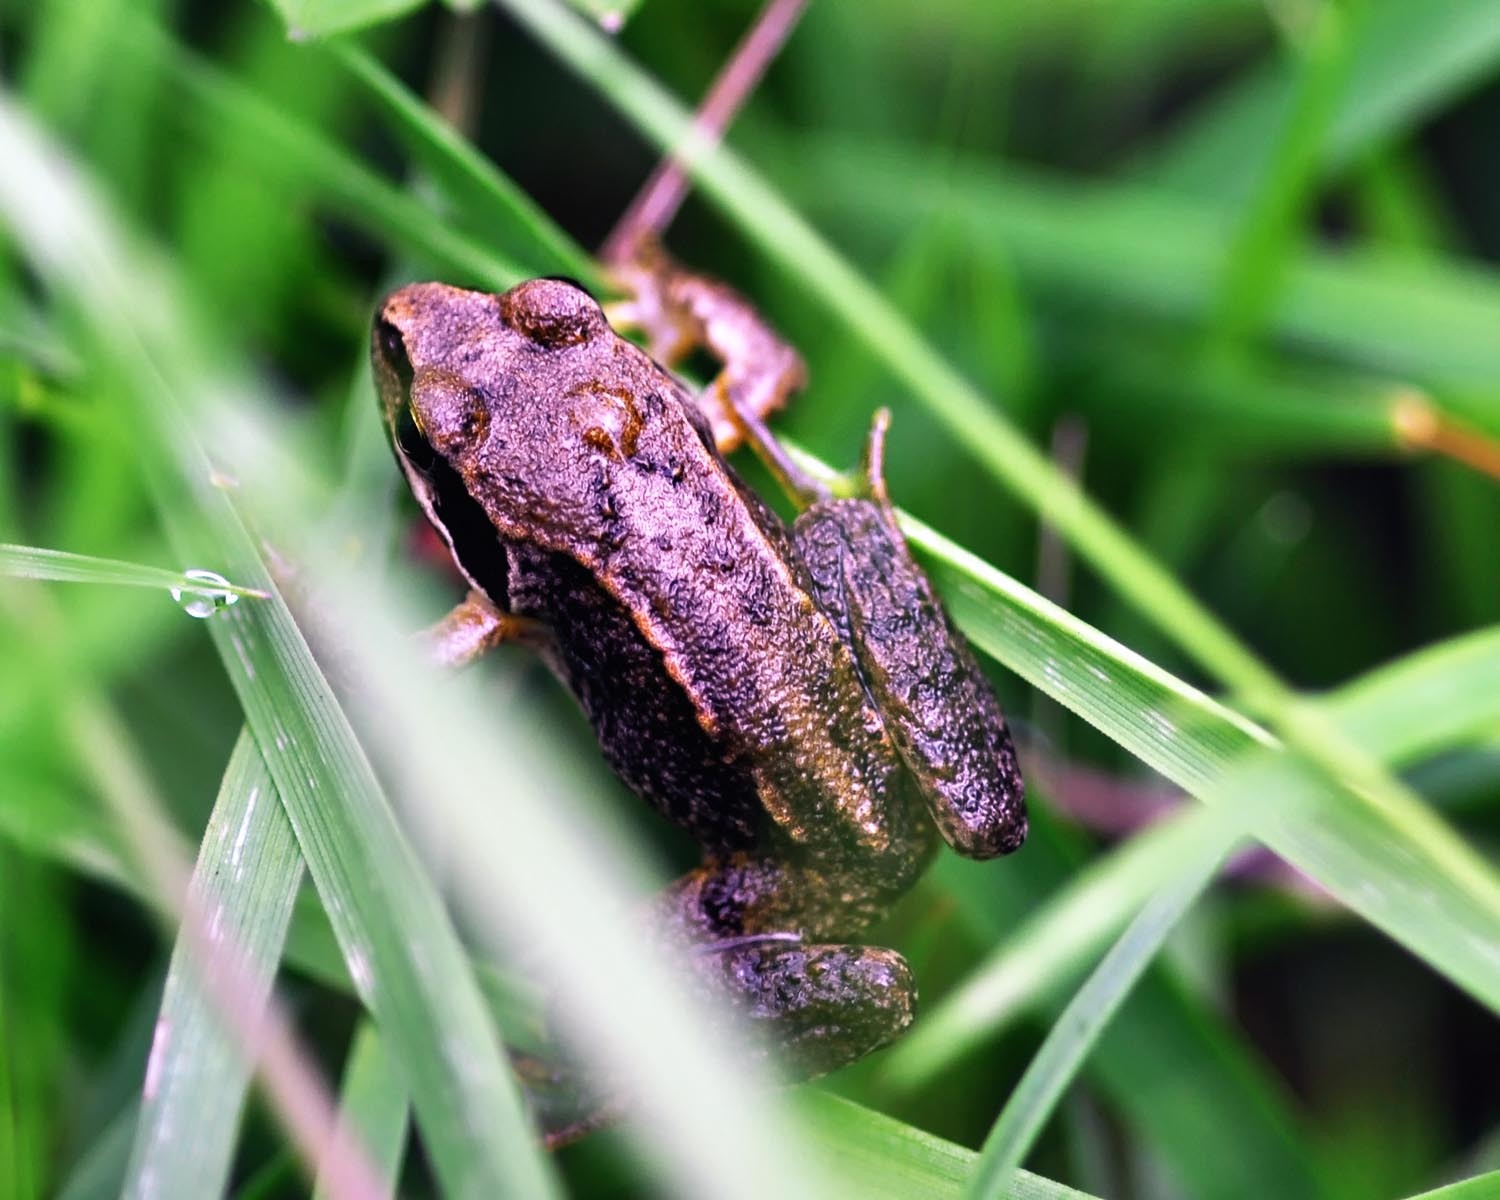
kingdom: Animalia
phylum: Chordata
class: Amphibia
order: Anura
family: Ranidae
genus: Rana
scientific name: Rana temporaria
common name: Common frog
